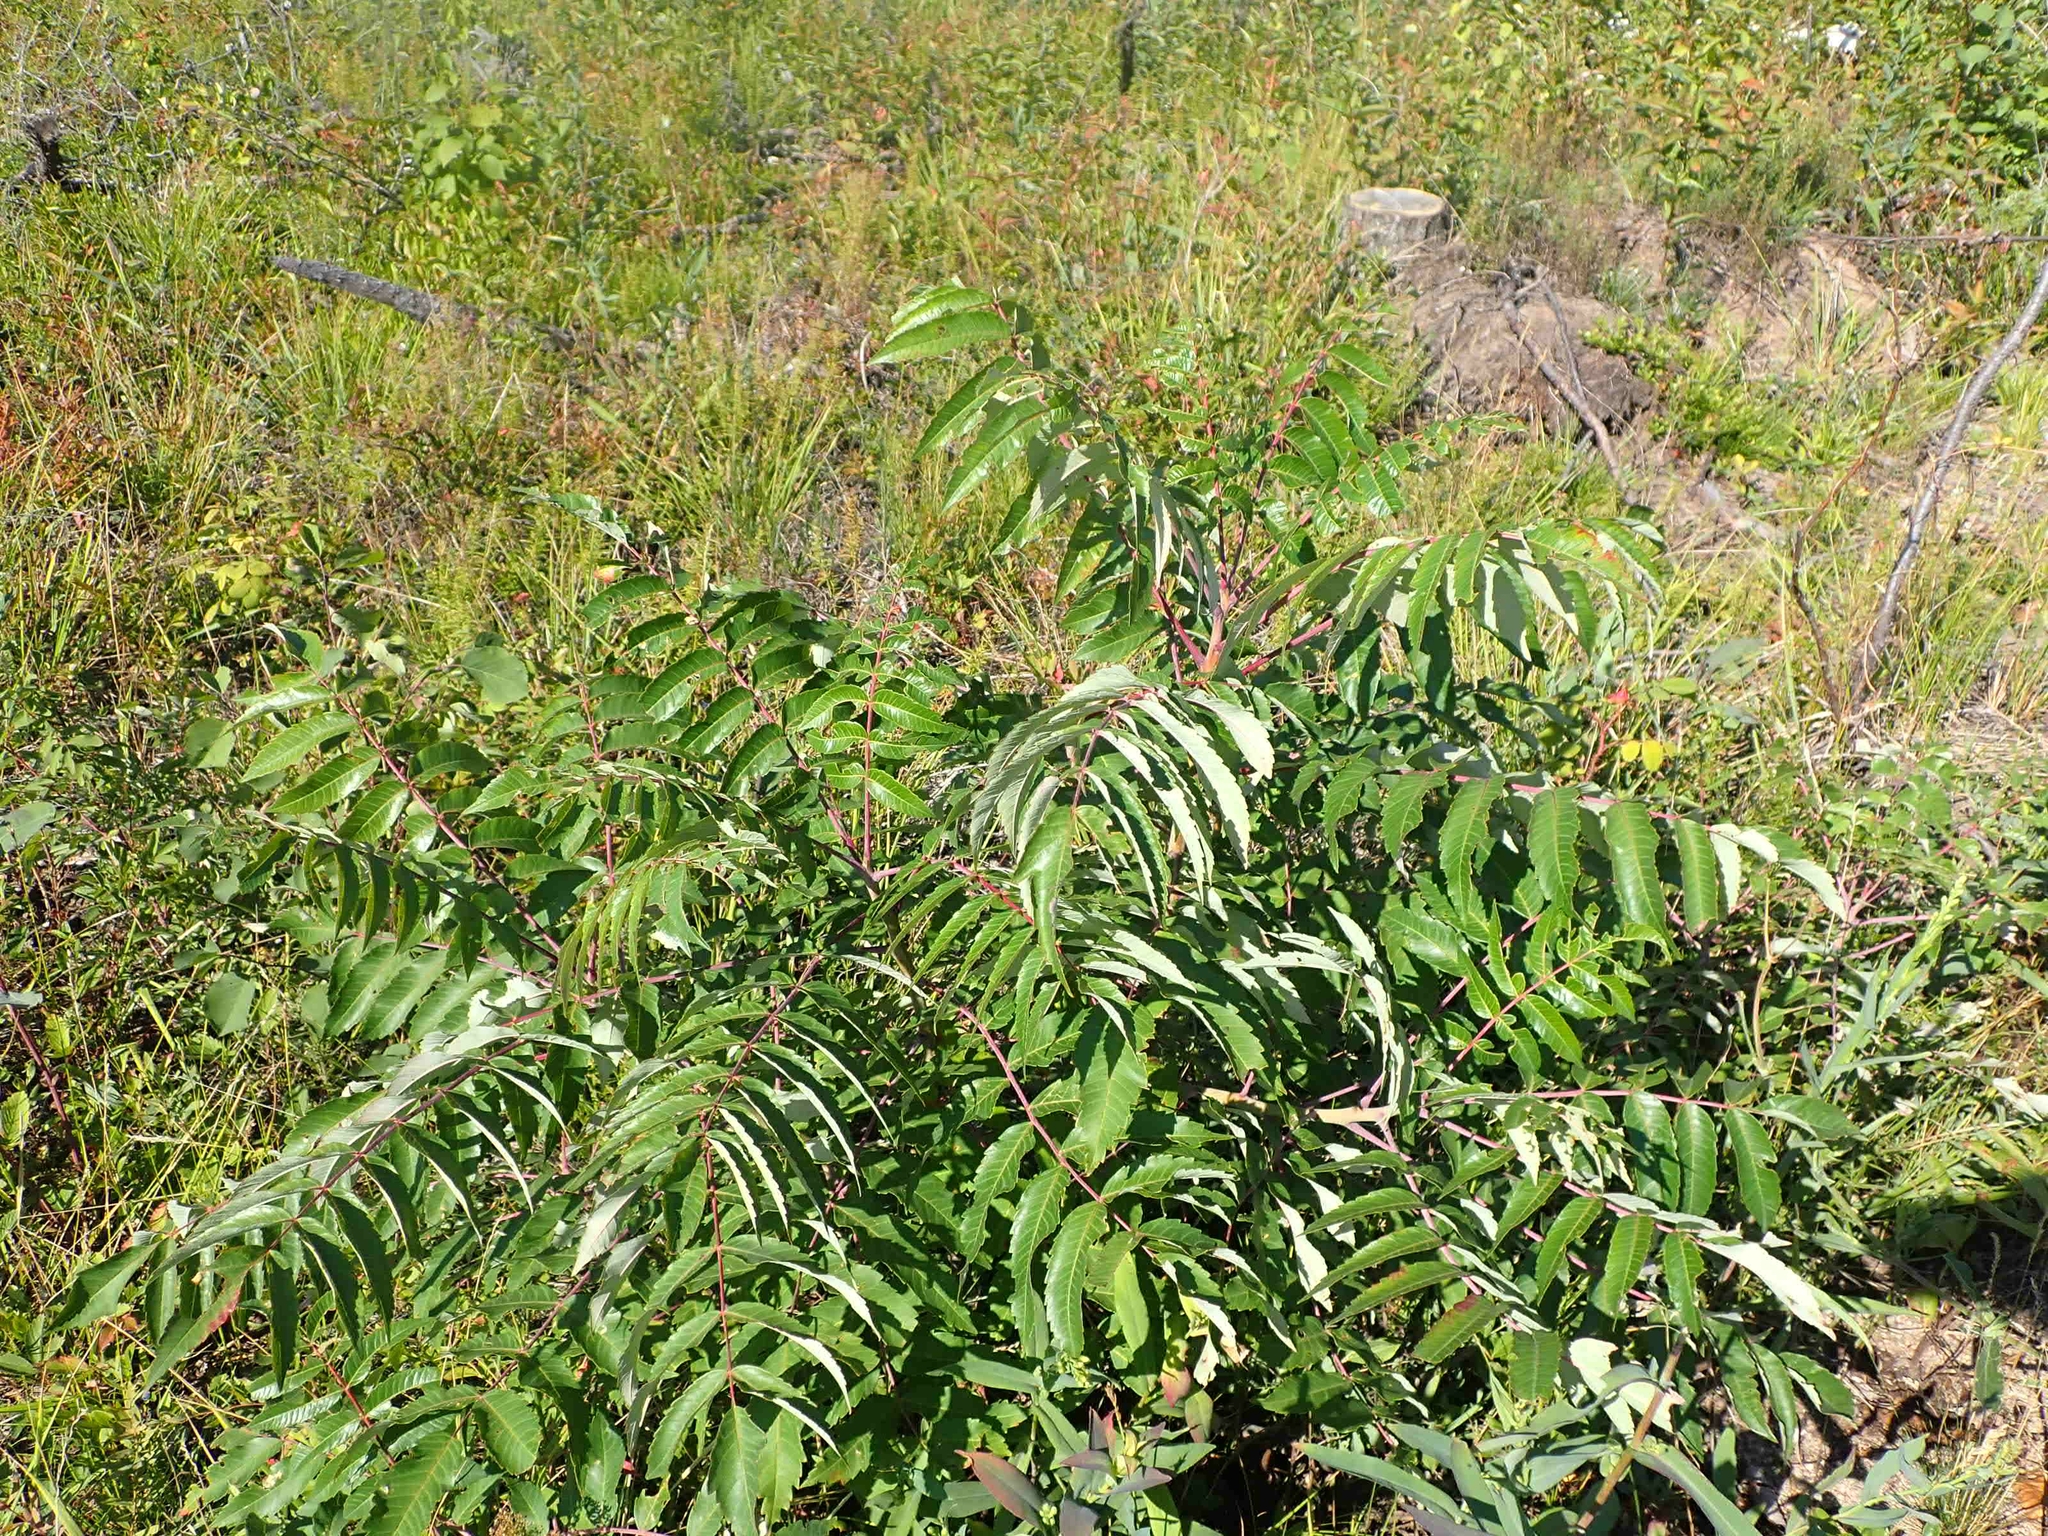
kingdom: Plantae
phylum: Tracheophyta
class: Magnoliopsida
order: Sapindales
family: Anacardiaceae
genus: Rhus
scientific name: Rhus glabra
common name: Scarlet sumac
